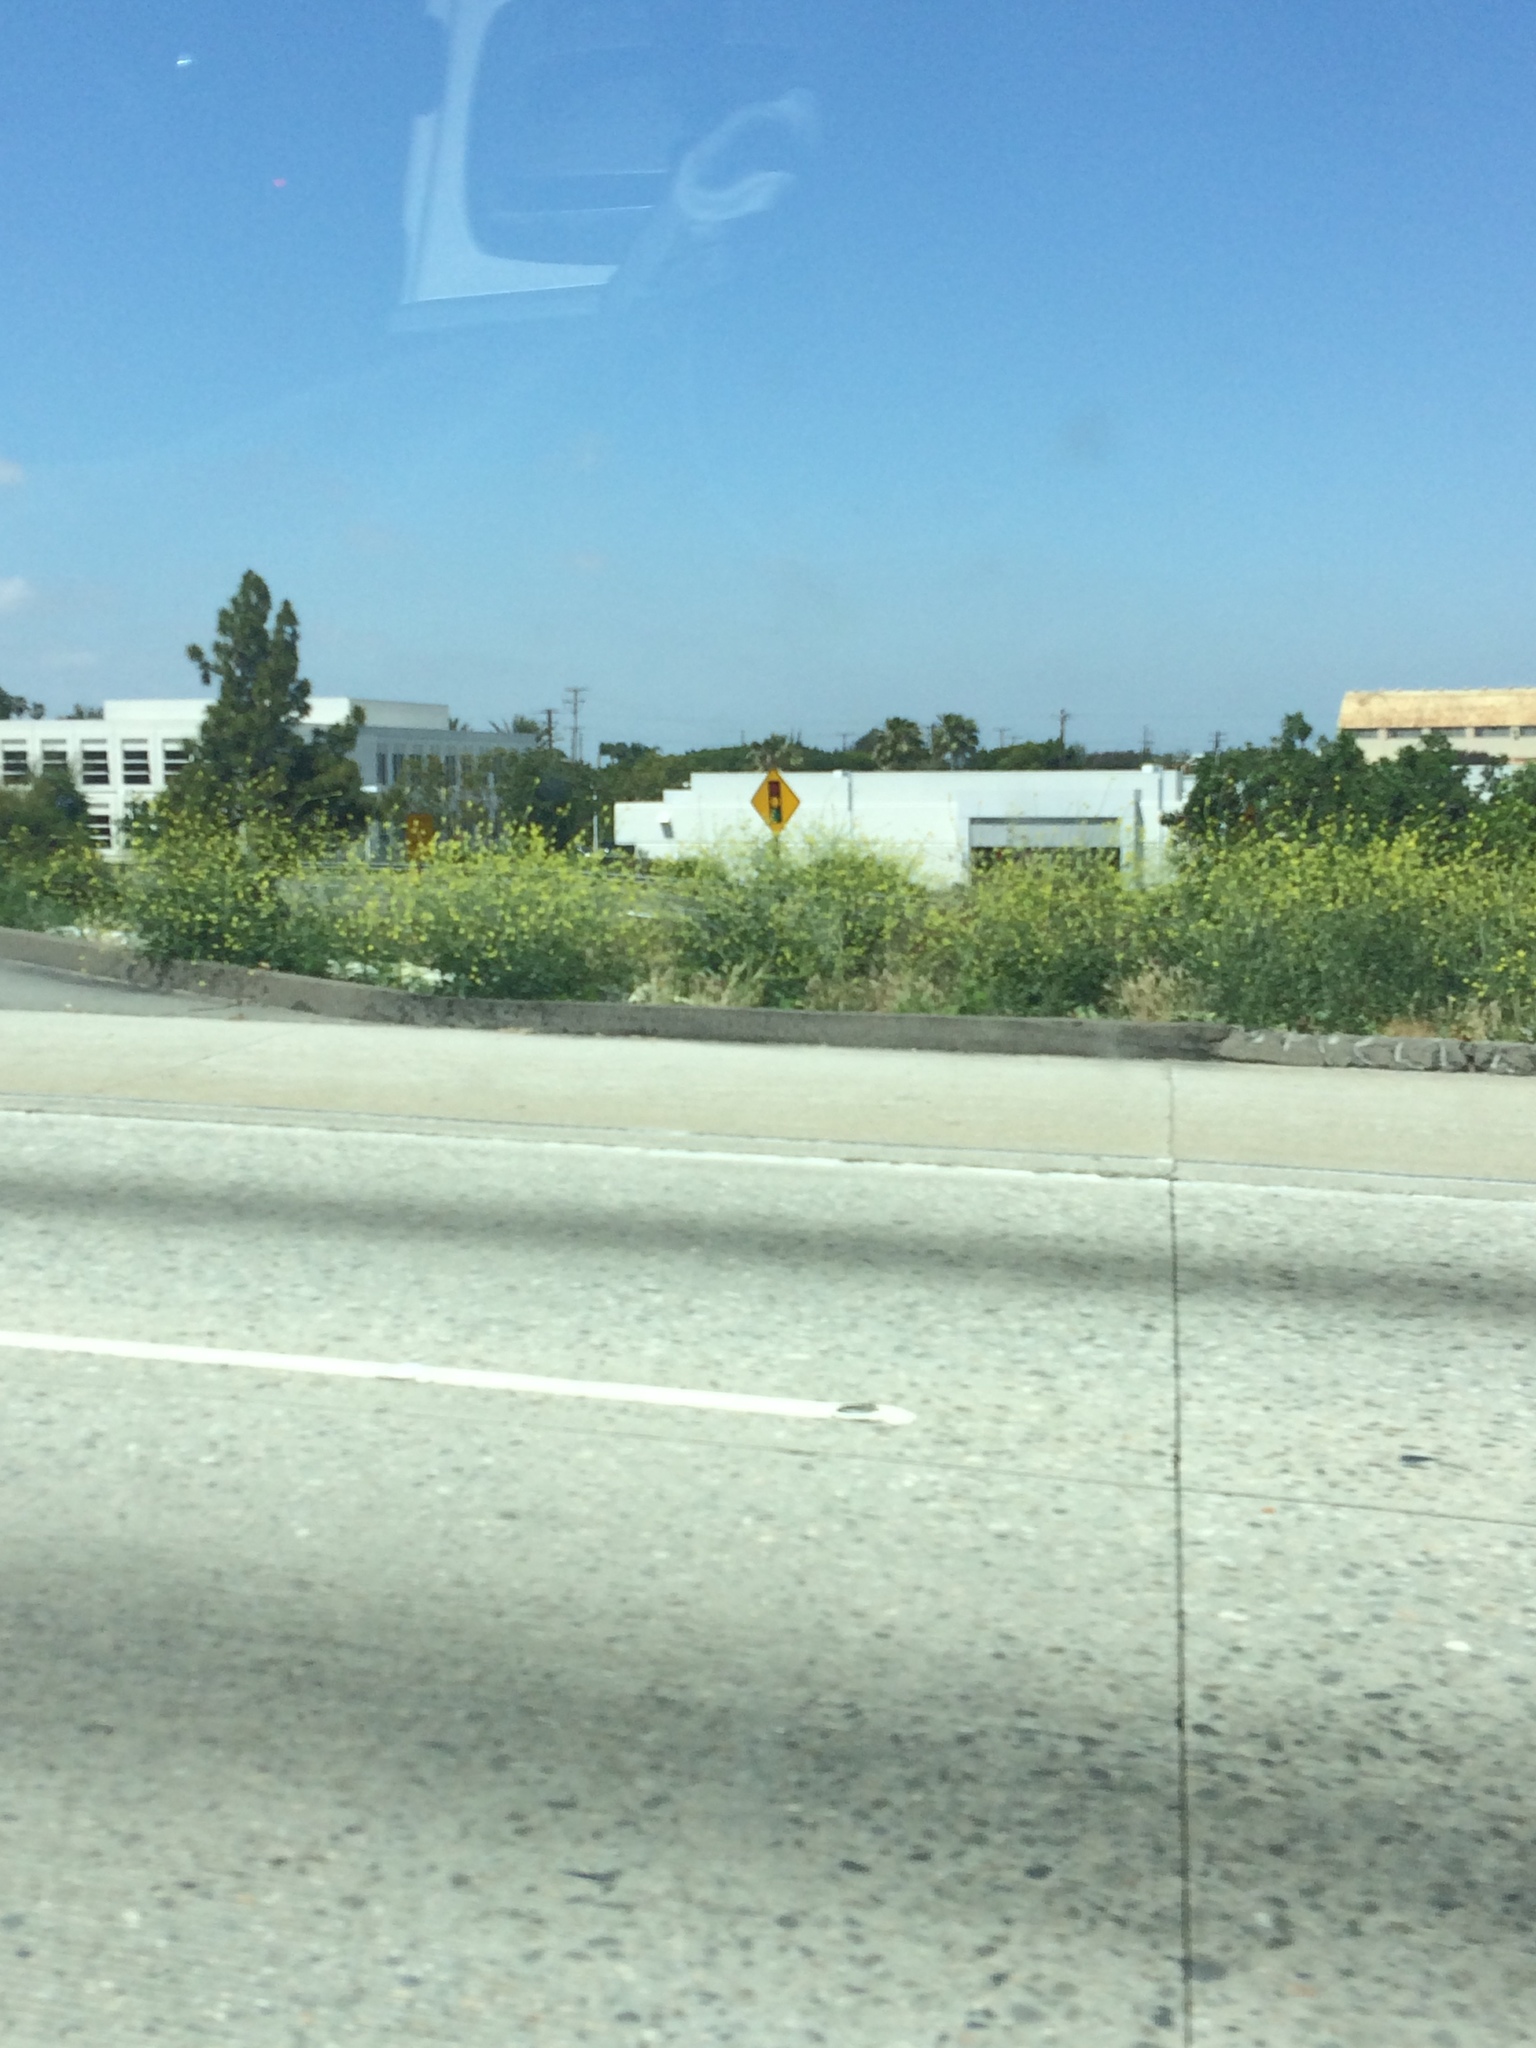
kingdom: Plantae
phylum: Tracheophyta
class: Magnoliopsida
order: Brassicales
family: Brassicaceae
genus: Hirschfeldia
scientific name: Hirschfeldia incana
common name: Hoary mustard
